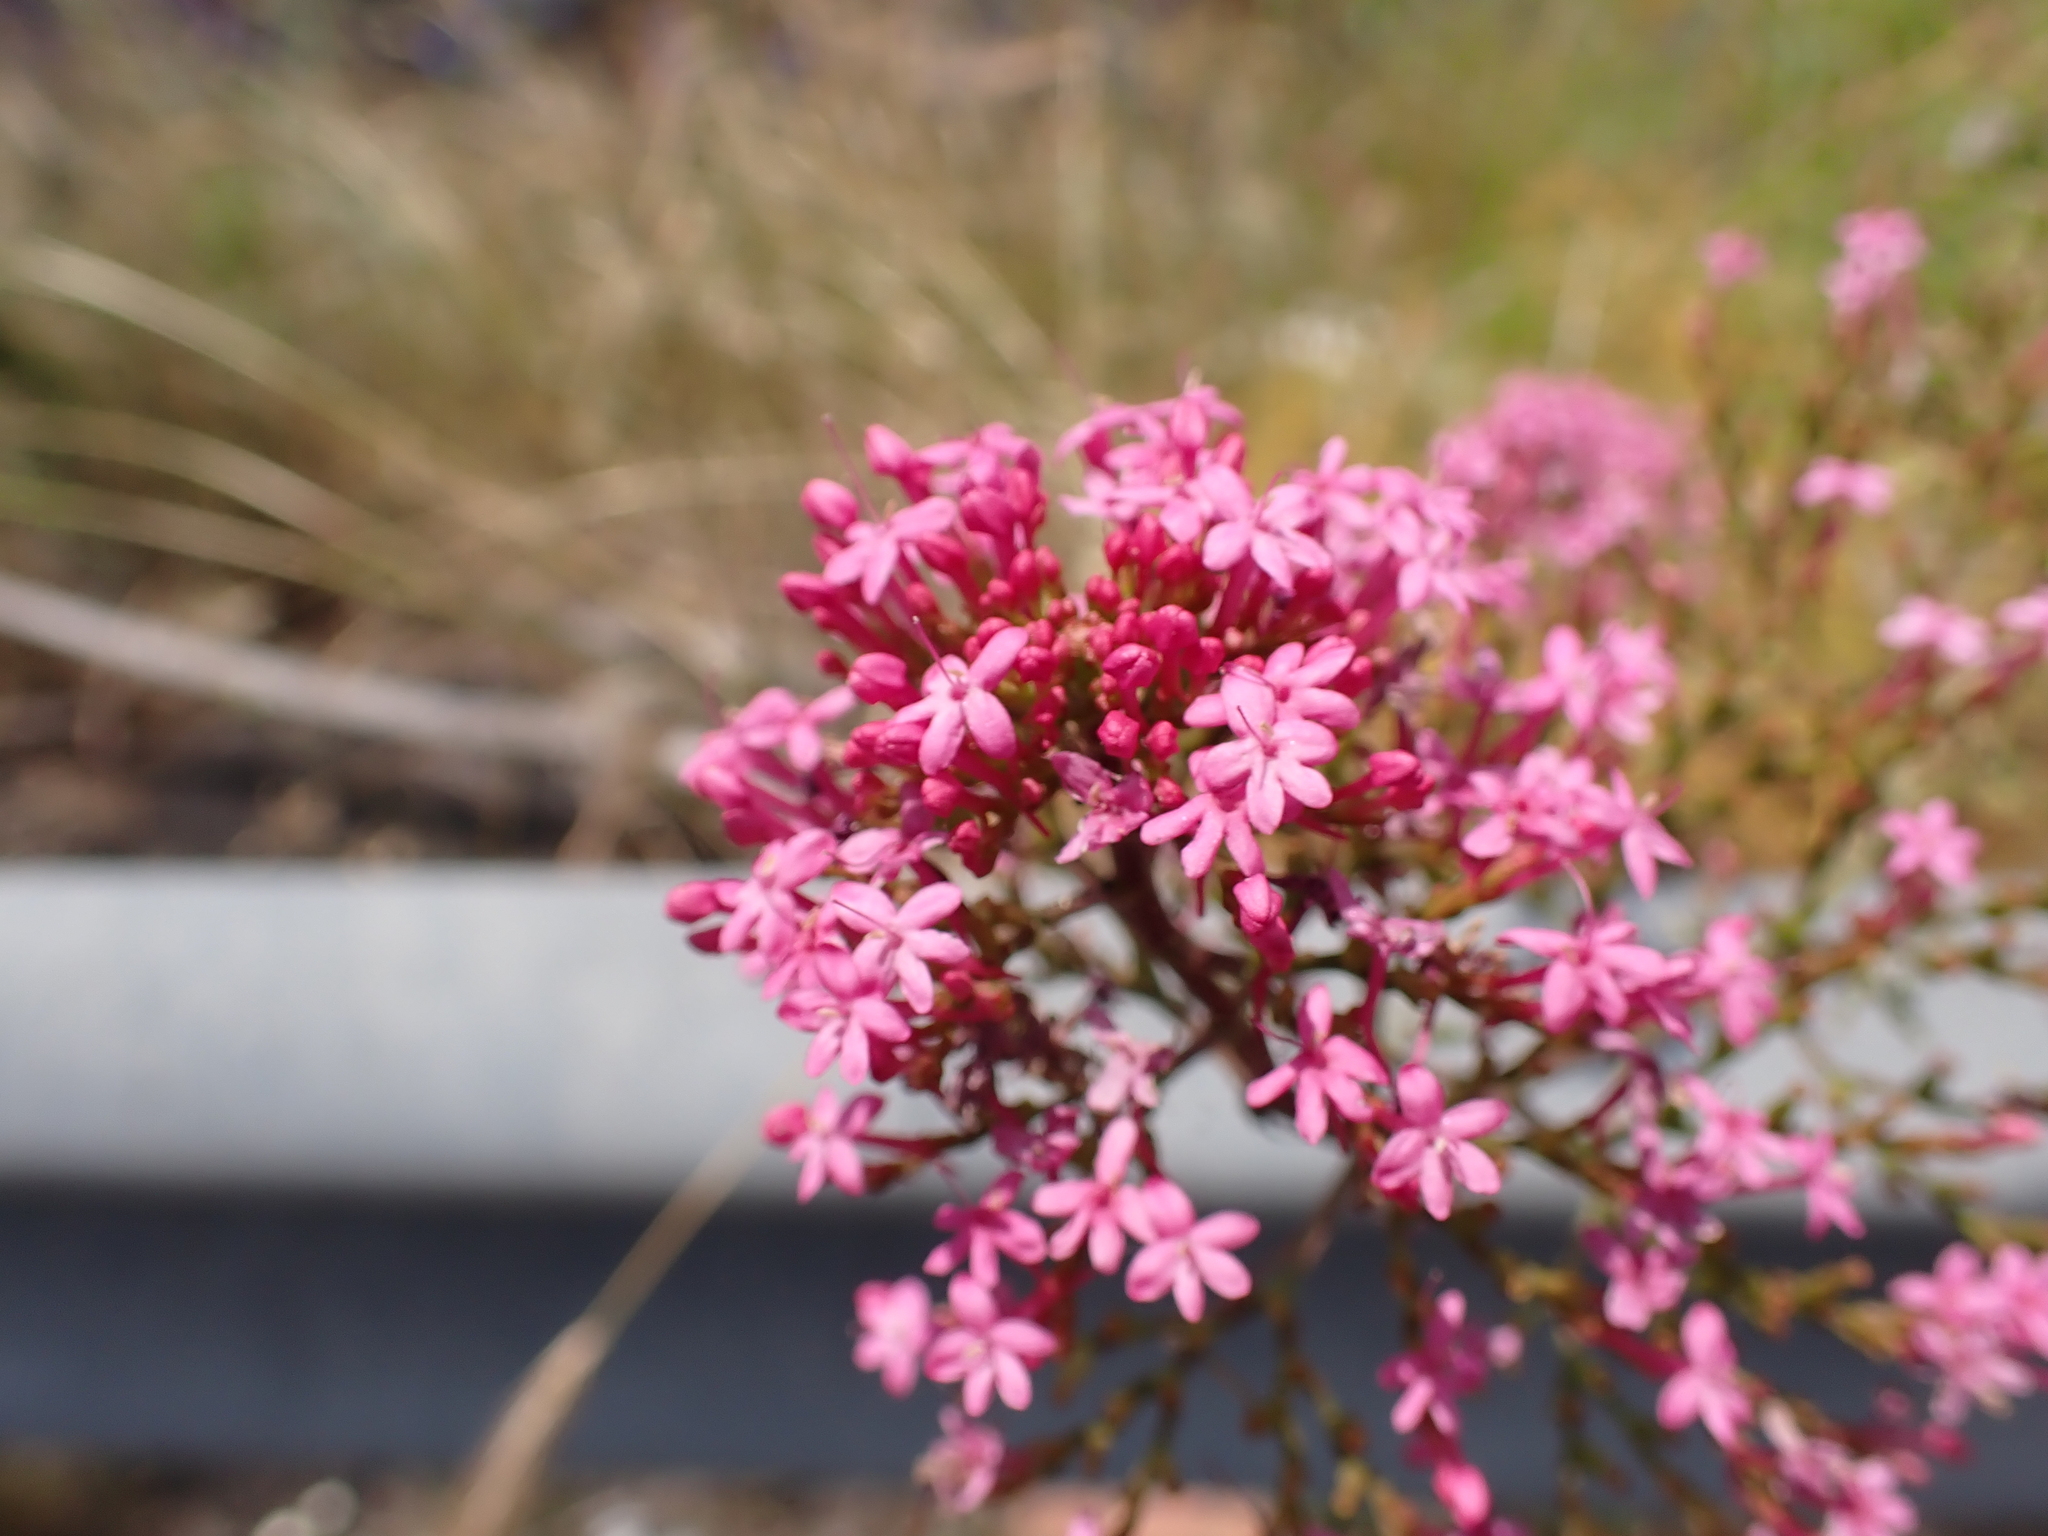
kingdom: Plantae
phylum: Tracheophyta
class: Magnoliopsida
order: Dipsacales
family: Caprifoliaceae
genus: Centranthus
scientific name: Centranthus ruber
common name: Red valerian
